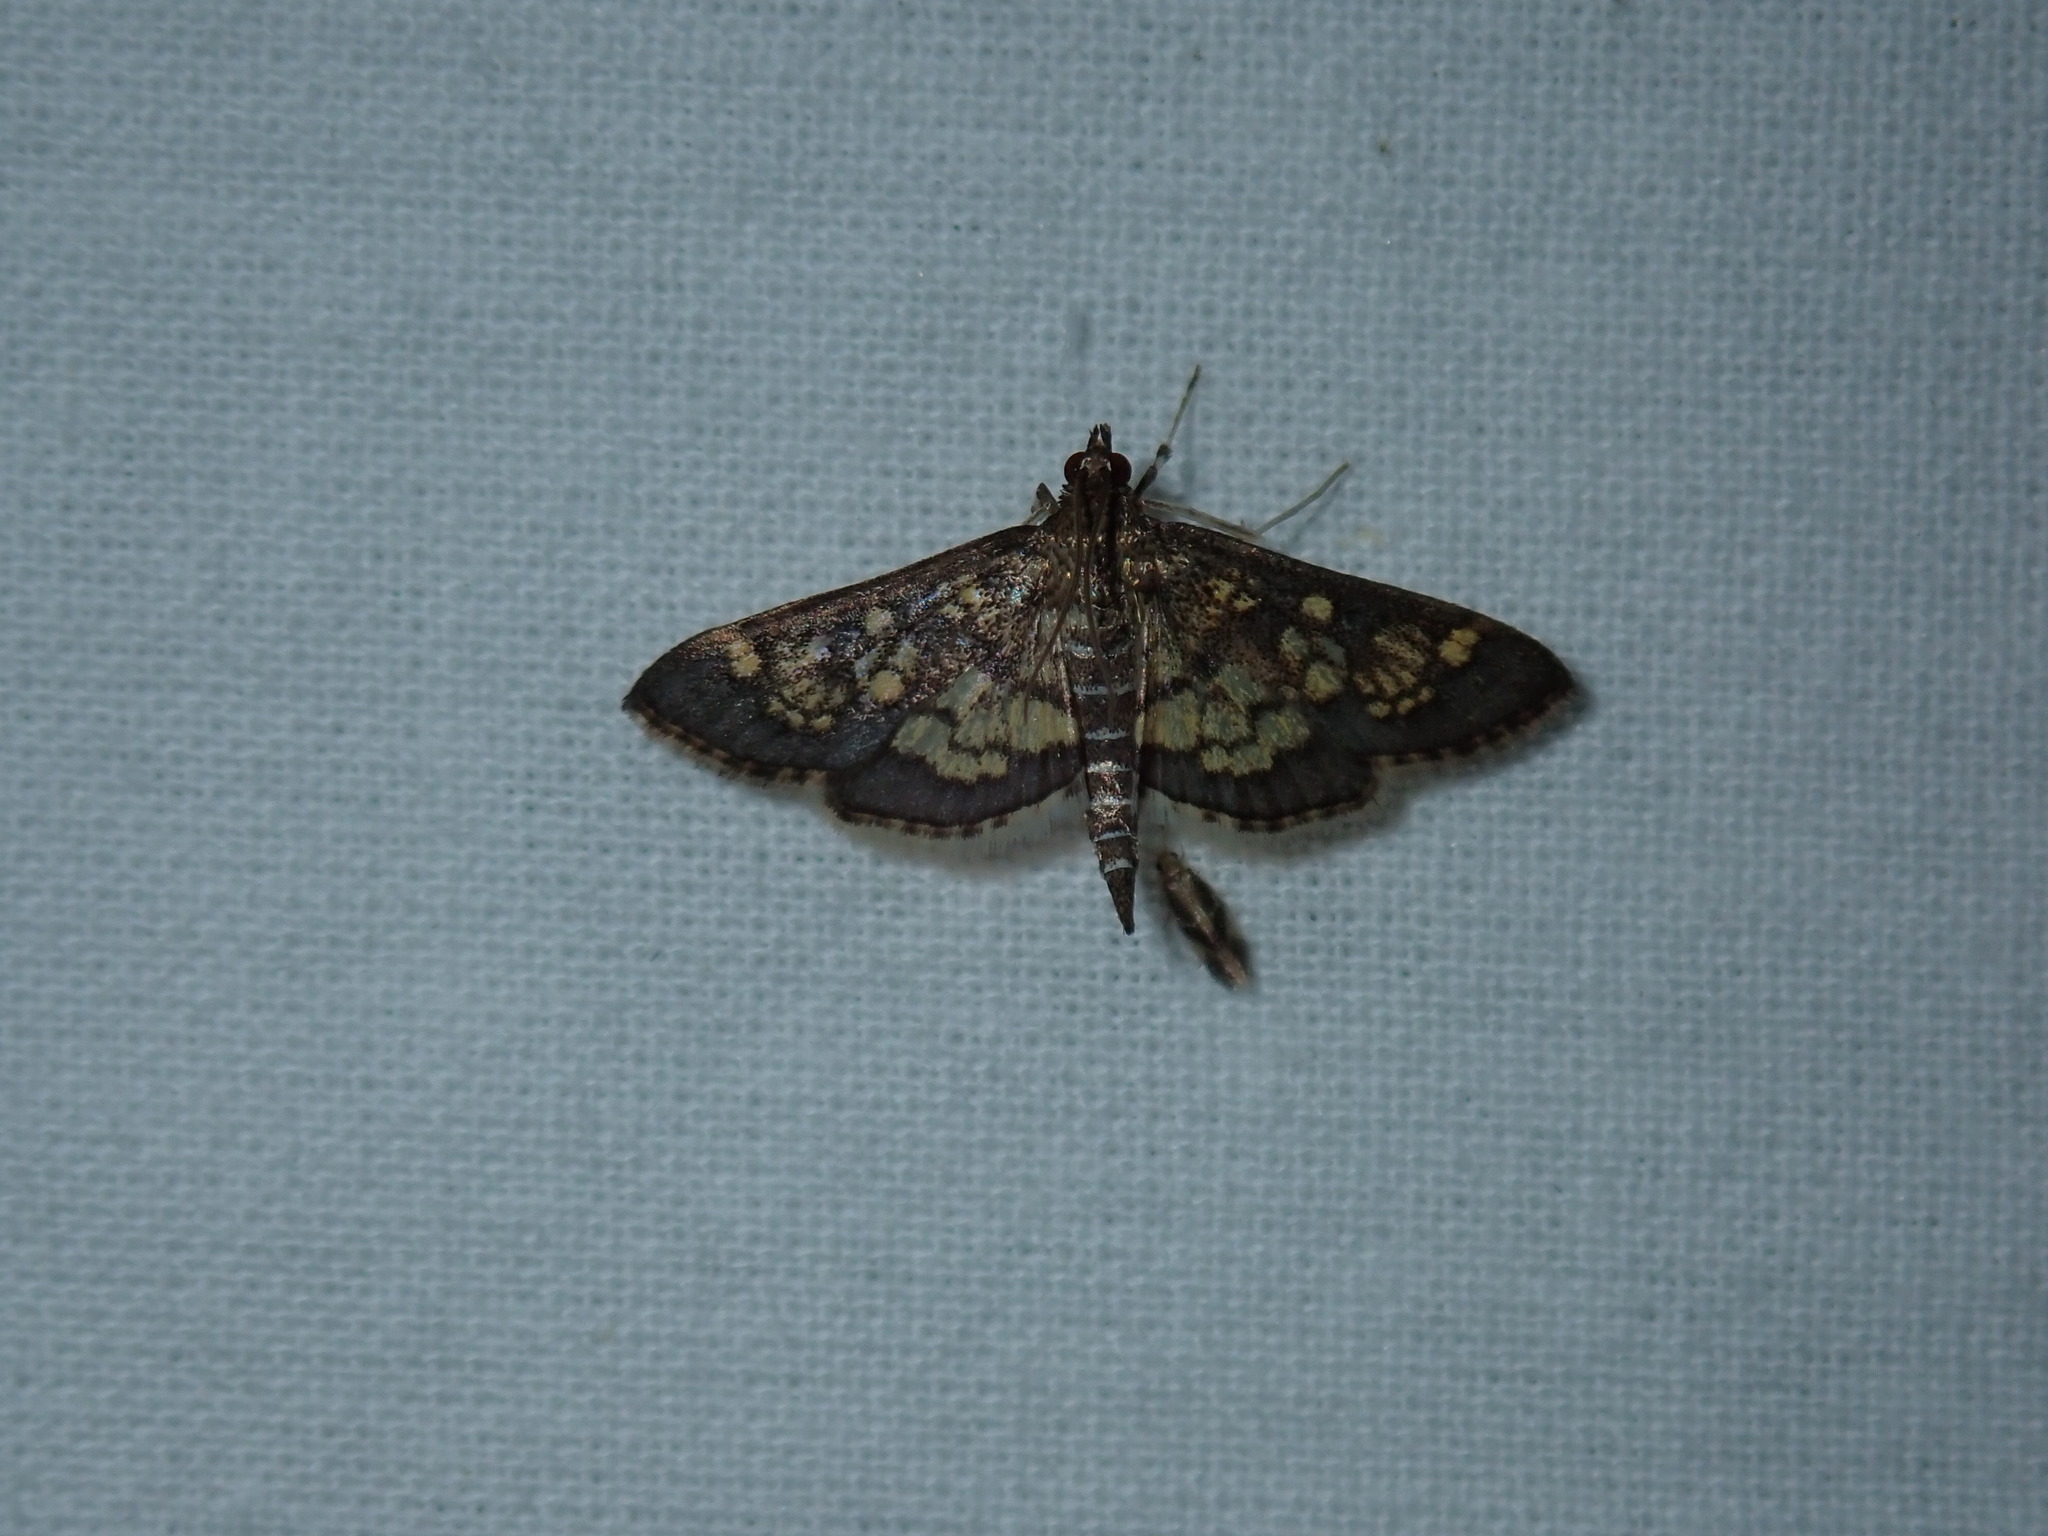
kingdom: Animalia
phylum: Arthropoda
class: Insecta
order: Lepidoptera
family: Crambidae
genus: Epipagis
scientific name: Epipagis adipaloides
